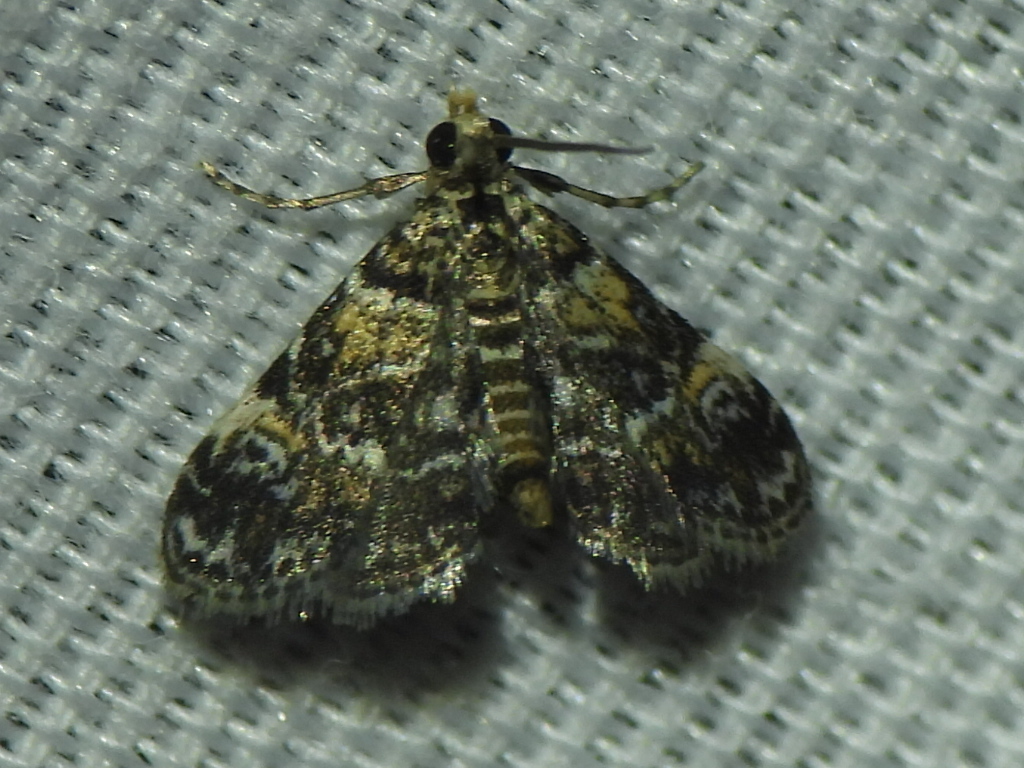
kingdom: Animalia
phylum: Arthropoda
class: Insecta
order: Lepidoptera
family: Crambidae
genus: Elophila
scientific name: Elophila obliteralis
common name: Waterlily leafcutter moth
